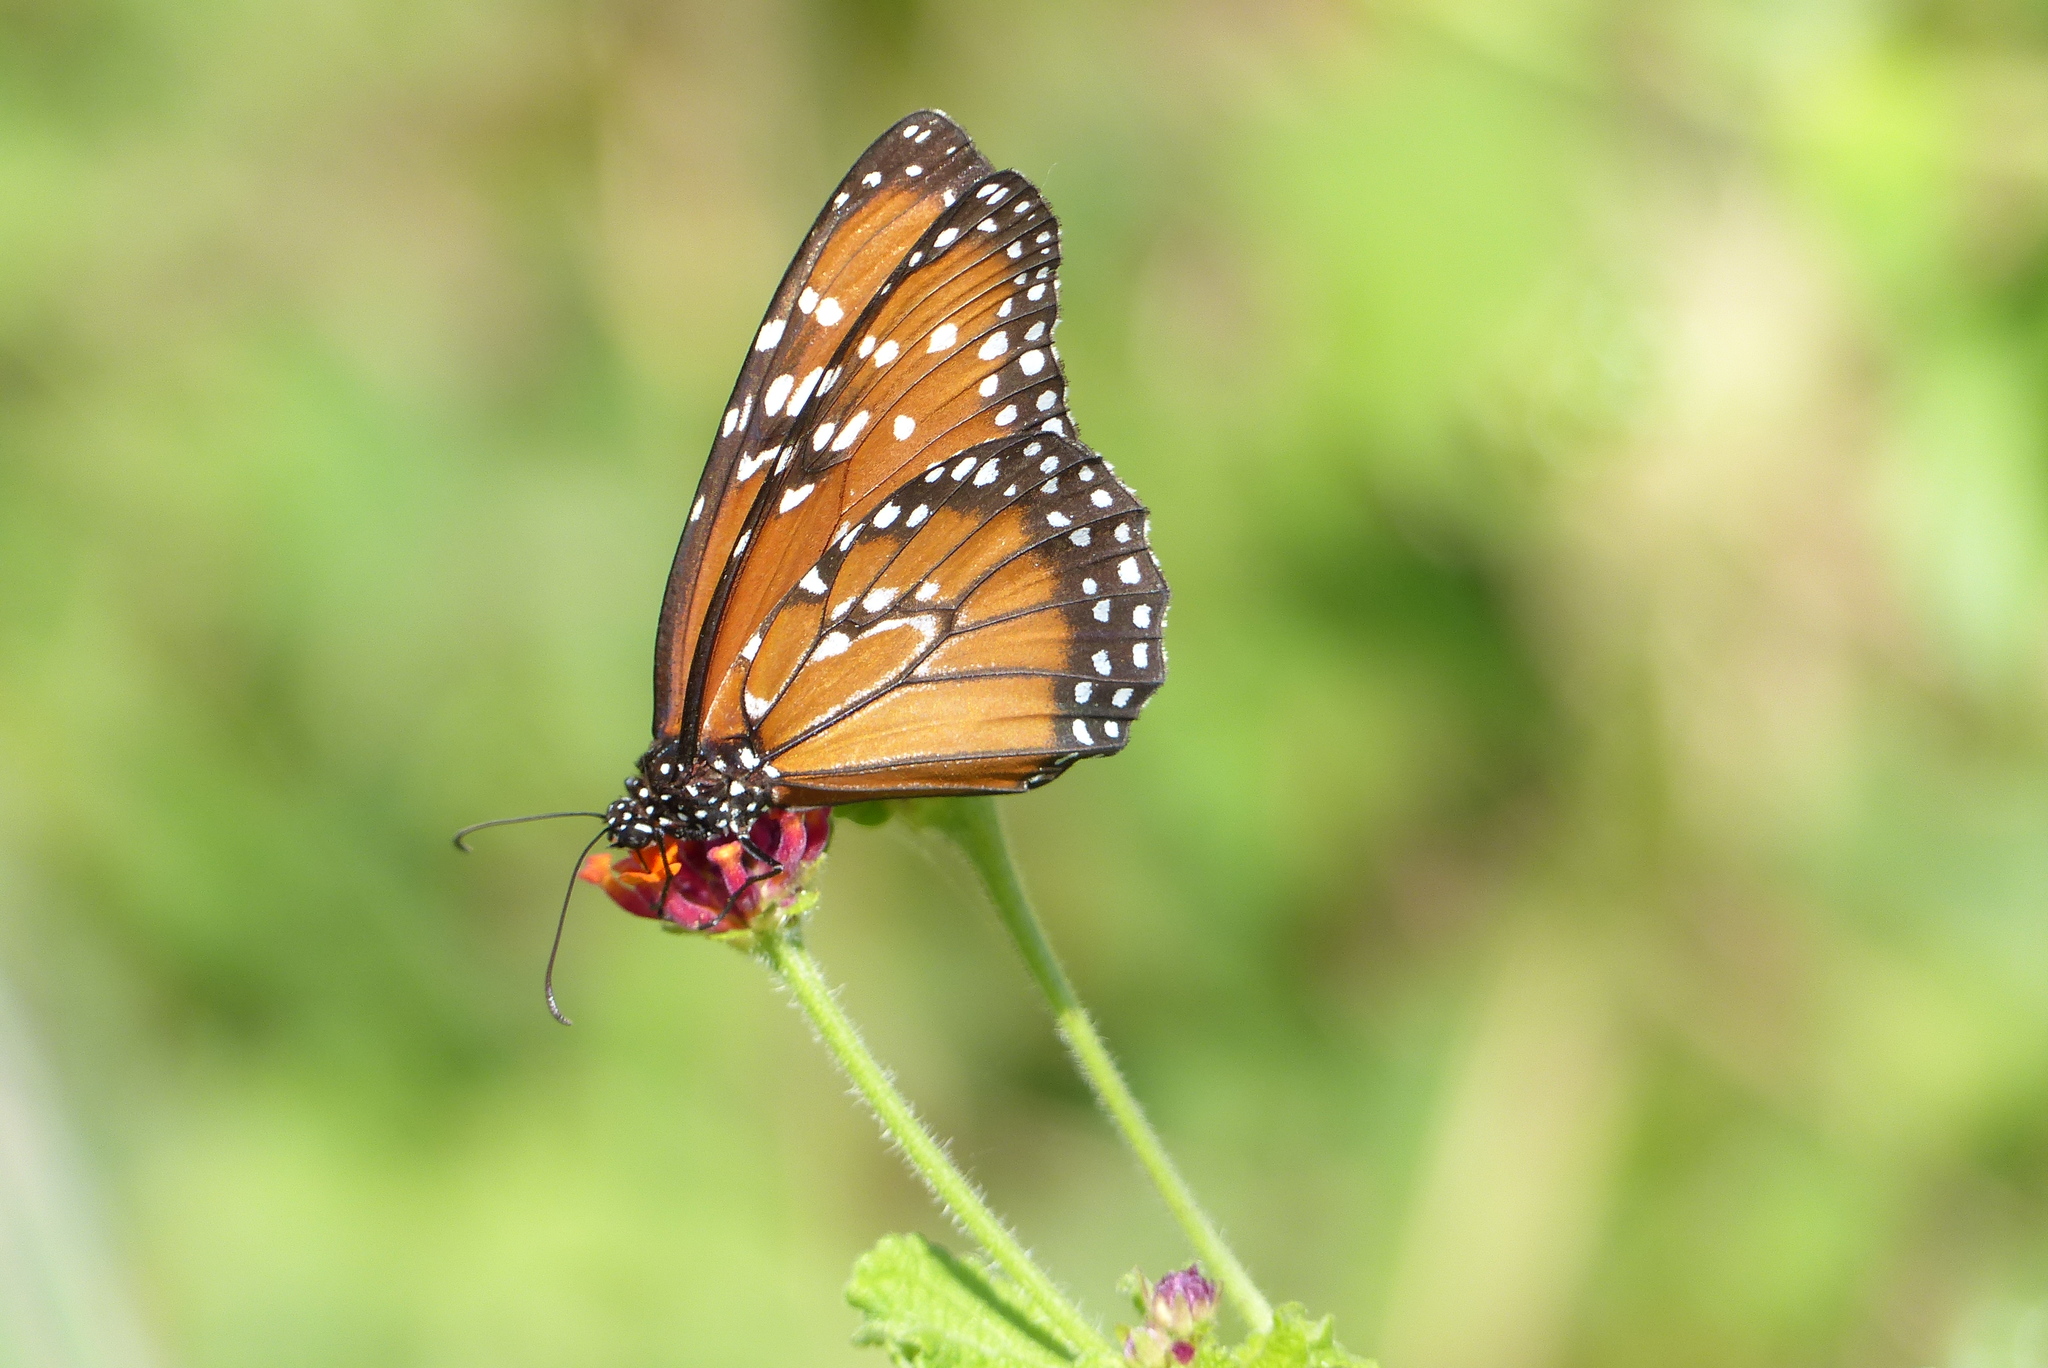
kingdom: Animalia
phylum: Arthropoda
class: Insecta
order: Lepidoptera
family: Nymphalidae
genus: Danaus
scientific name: Danaus gilippus
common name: Queen
